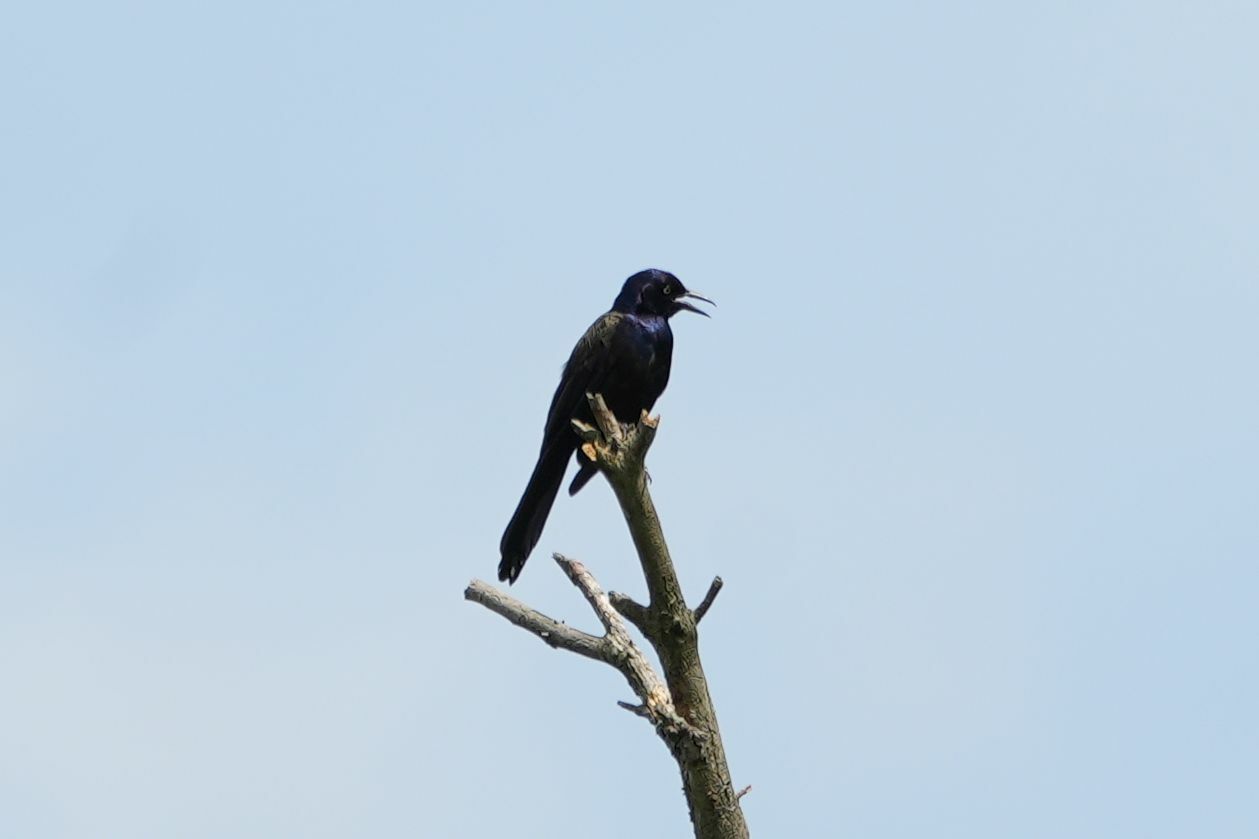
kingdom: Animalia
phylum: Chordata
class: Aves
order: Passeriformes
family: Icteridae
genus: Quiscalus
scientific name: Quiscalus quiscula
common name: Common grackle
